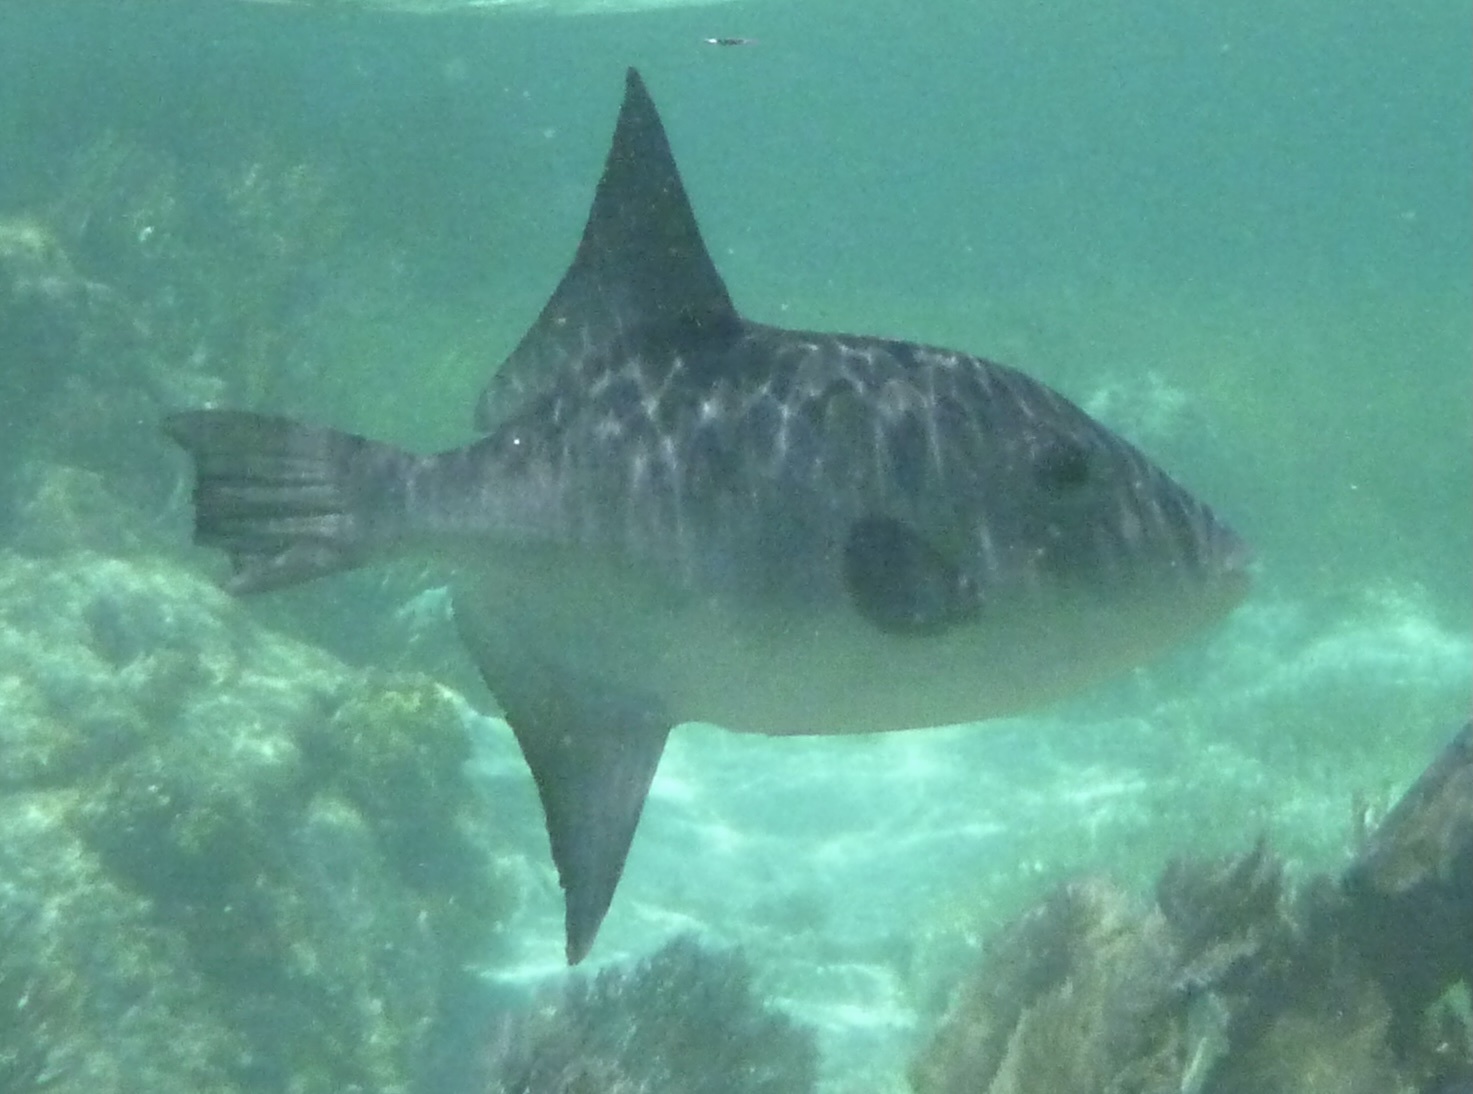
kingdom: Animalia
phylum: Chordata
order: Tetraodontiformes
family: Balistidae
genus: Canthidermis
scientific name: Canthidermis sufflamen
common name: Ocean triggerfish
